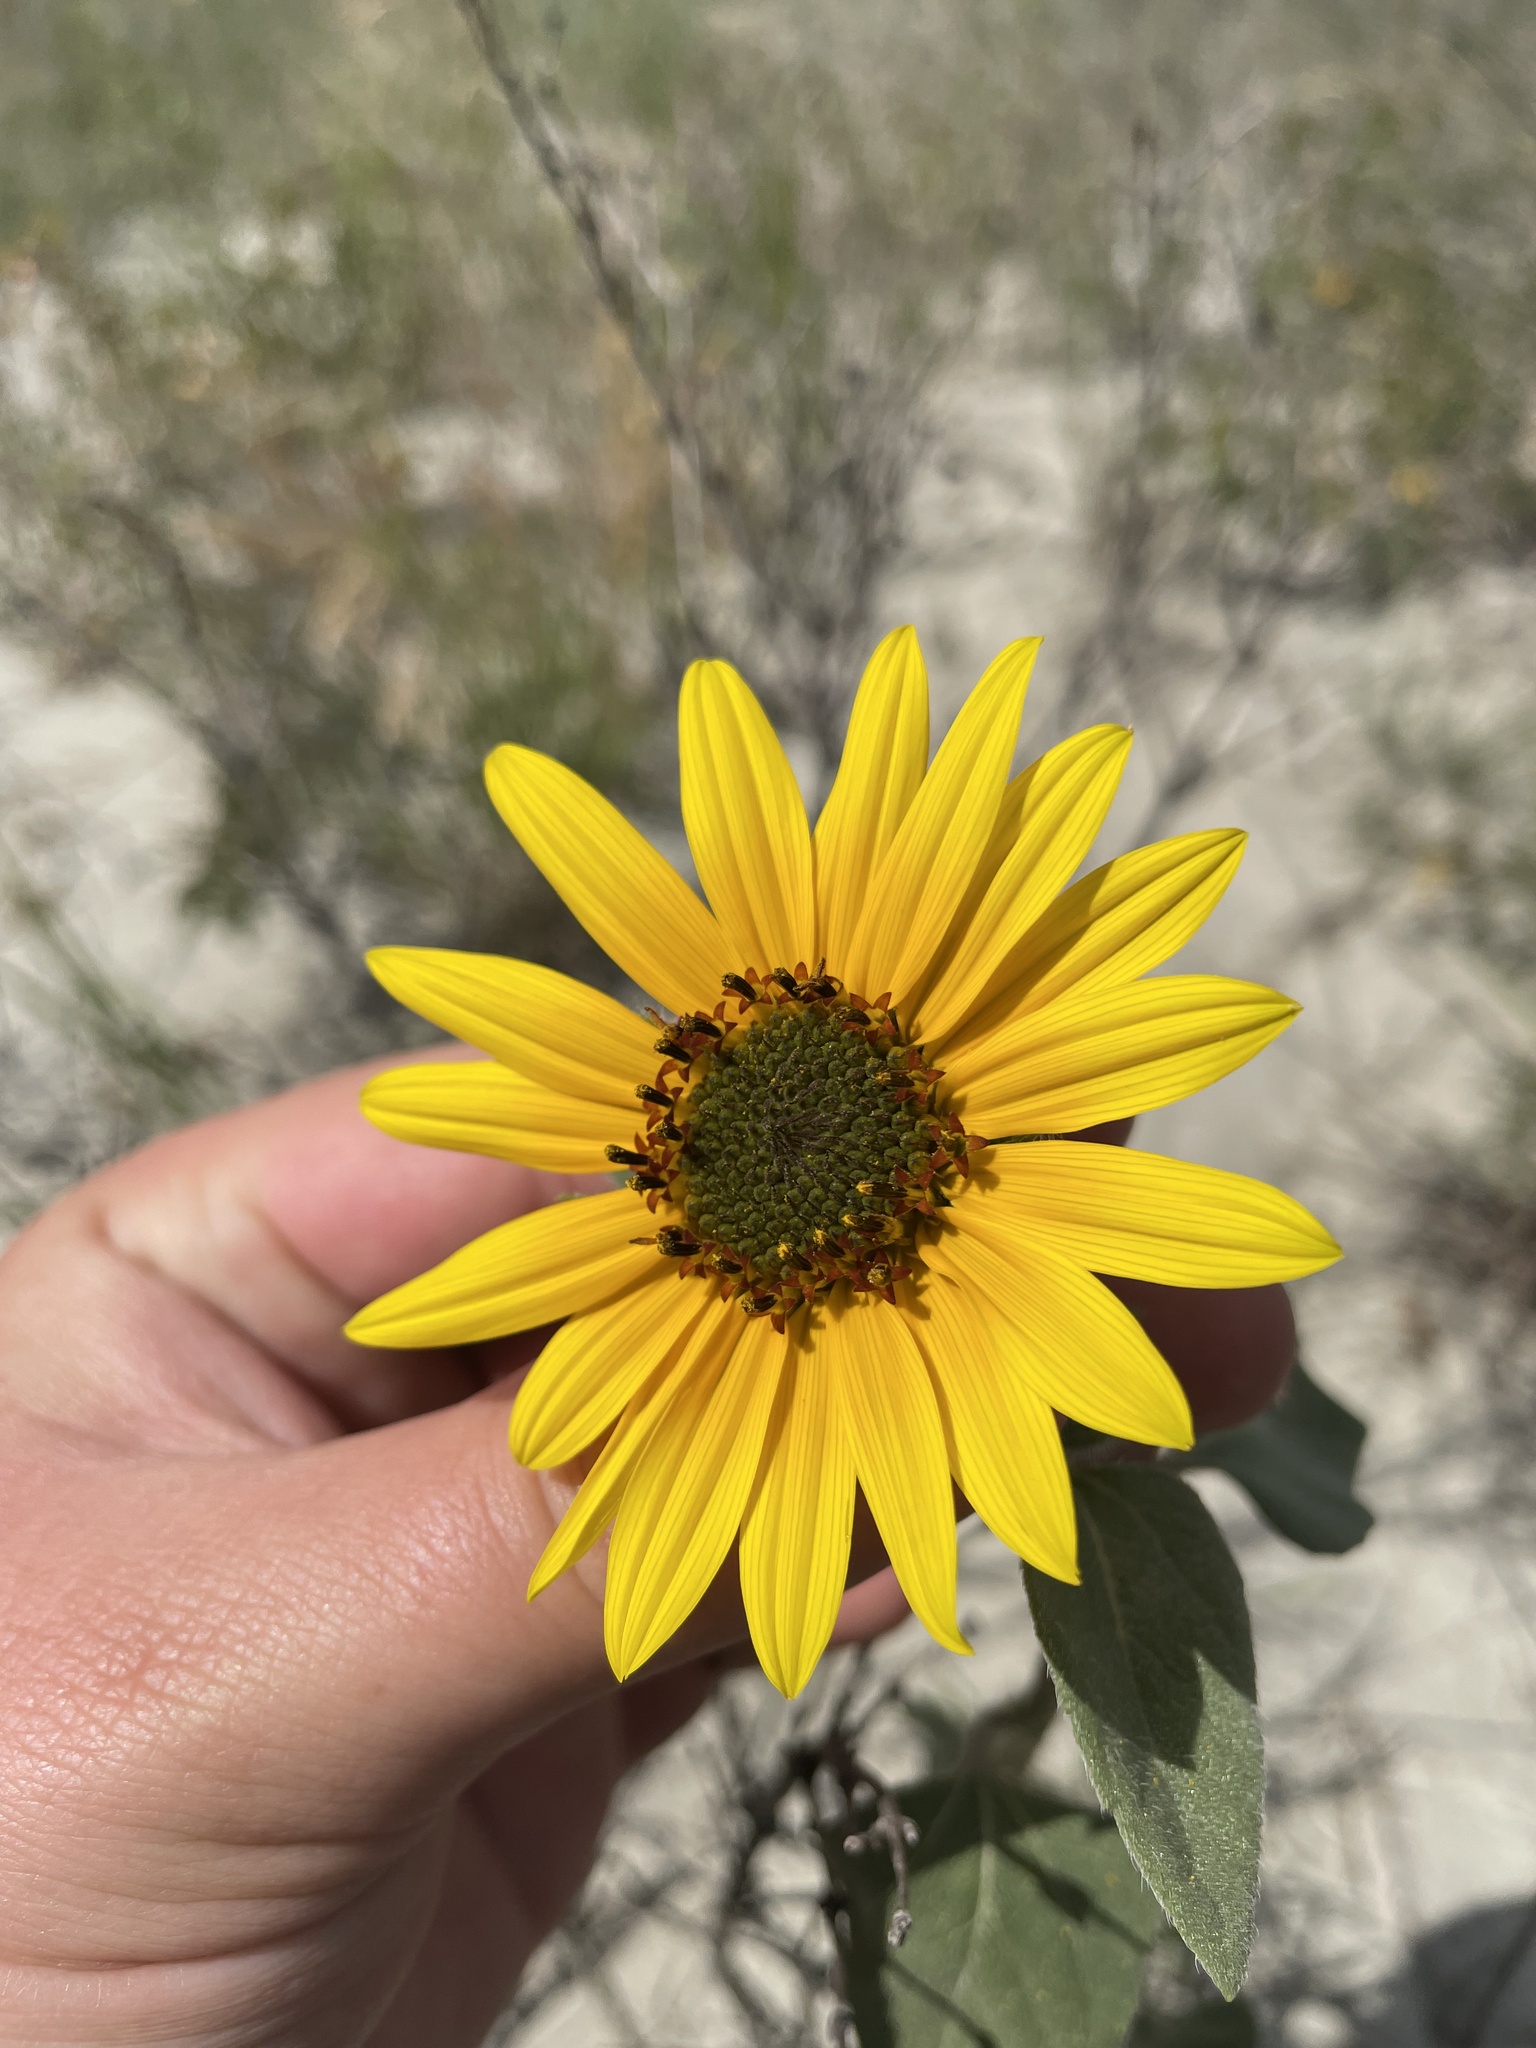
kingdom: Plantae
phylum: Tracheophyta
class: Magnoliopsida
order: Asterales
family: Asteraceae
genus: Helianthus
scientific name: Helianthus annuus
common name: Sunflower
